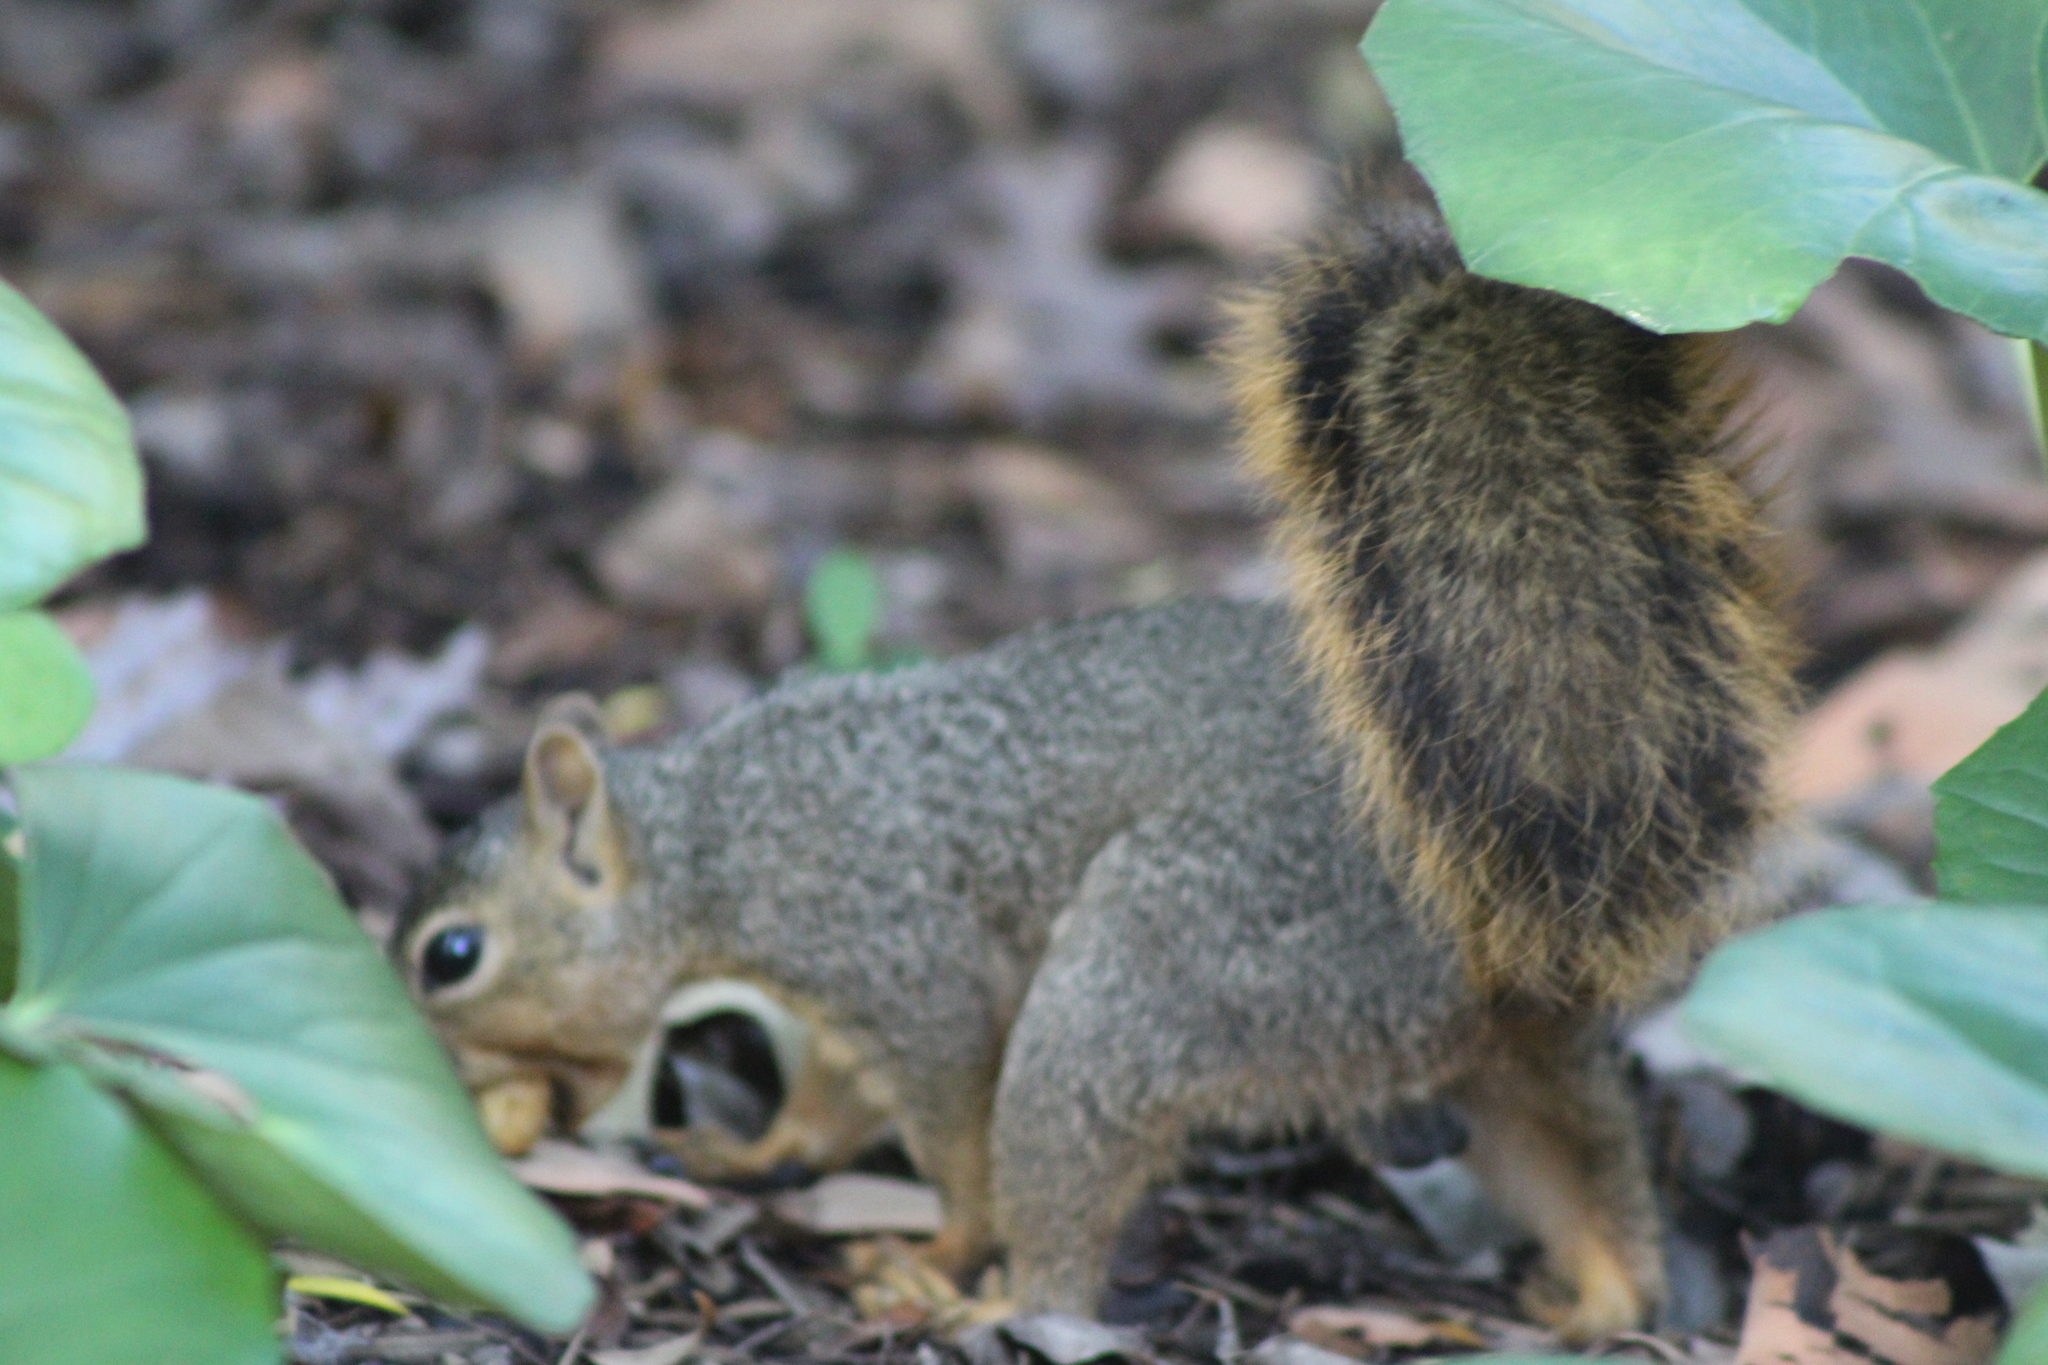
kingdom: Animalia
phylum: Chordata
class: Mammalia
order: Rodentia
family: Sciuridae
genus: Sciurus
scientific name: Sciurus niger
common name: Fox squirrel
